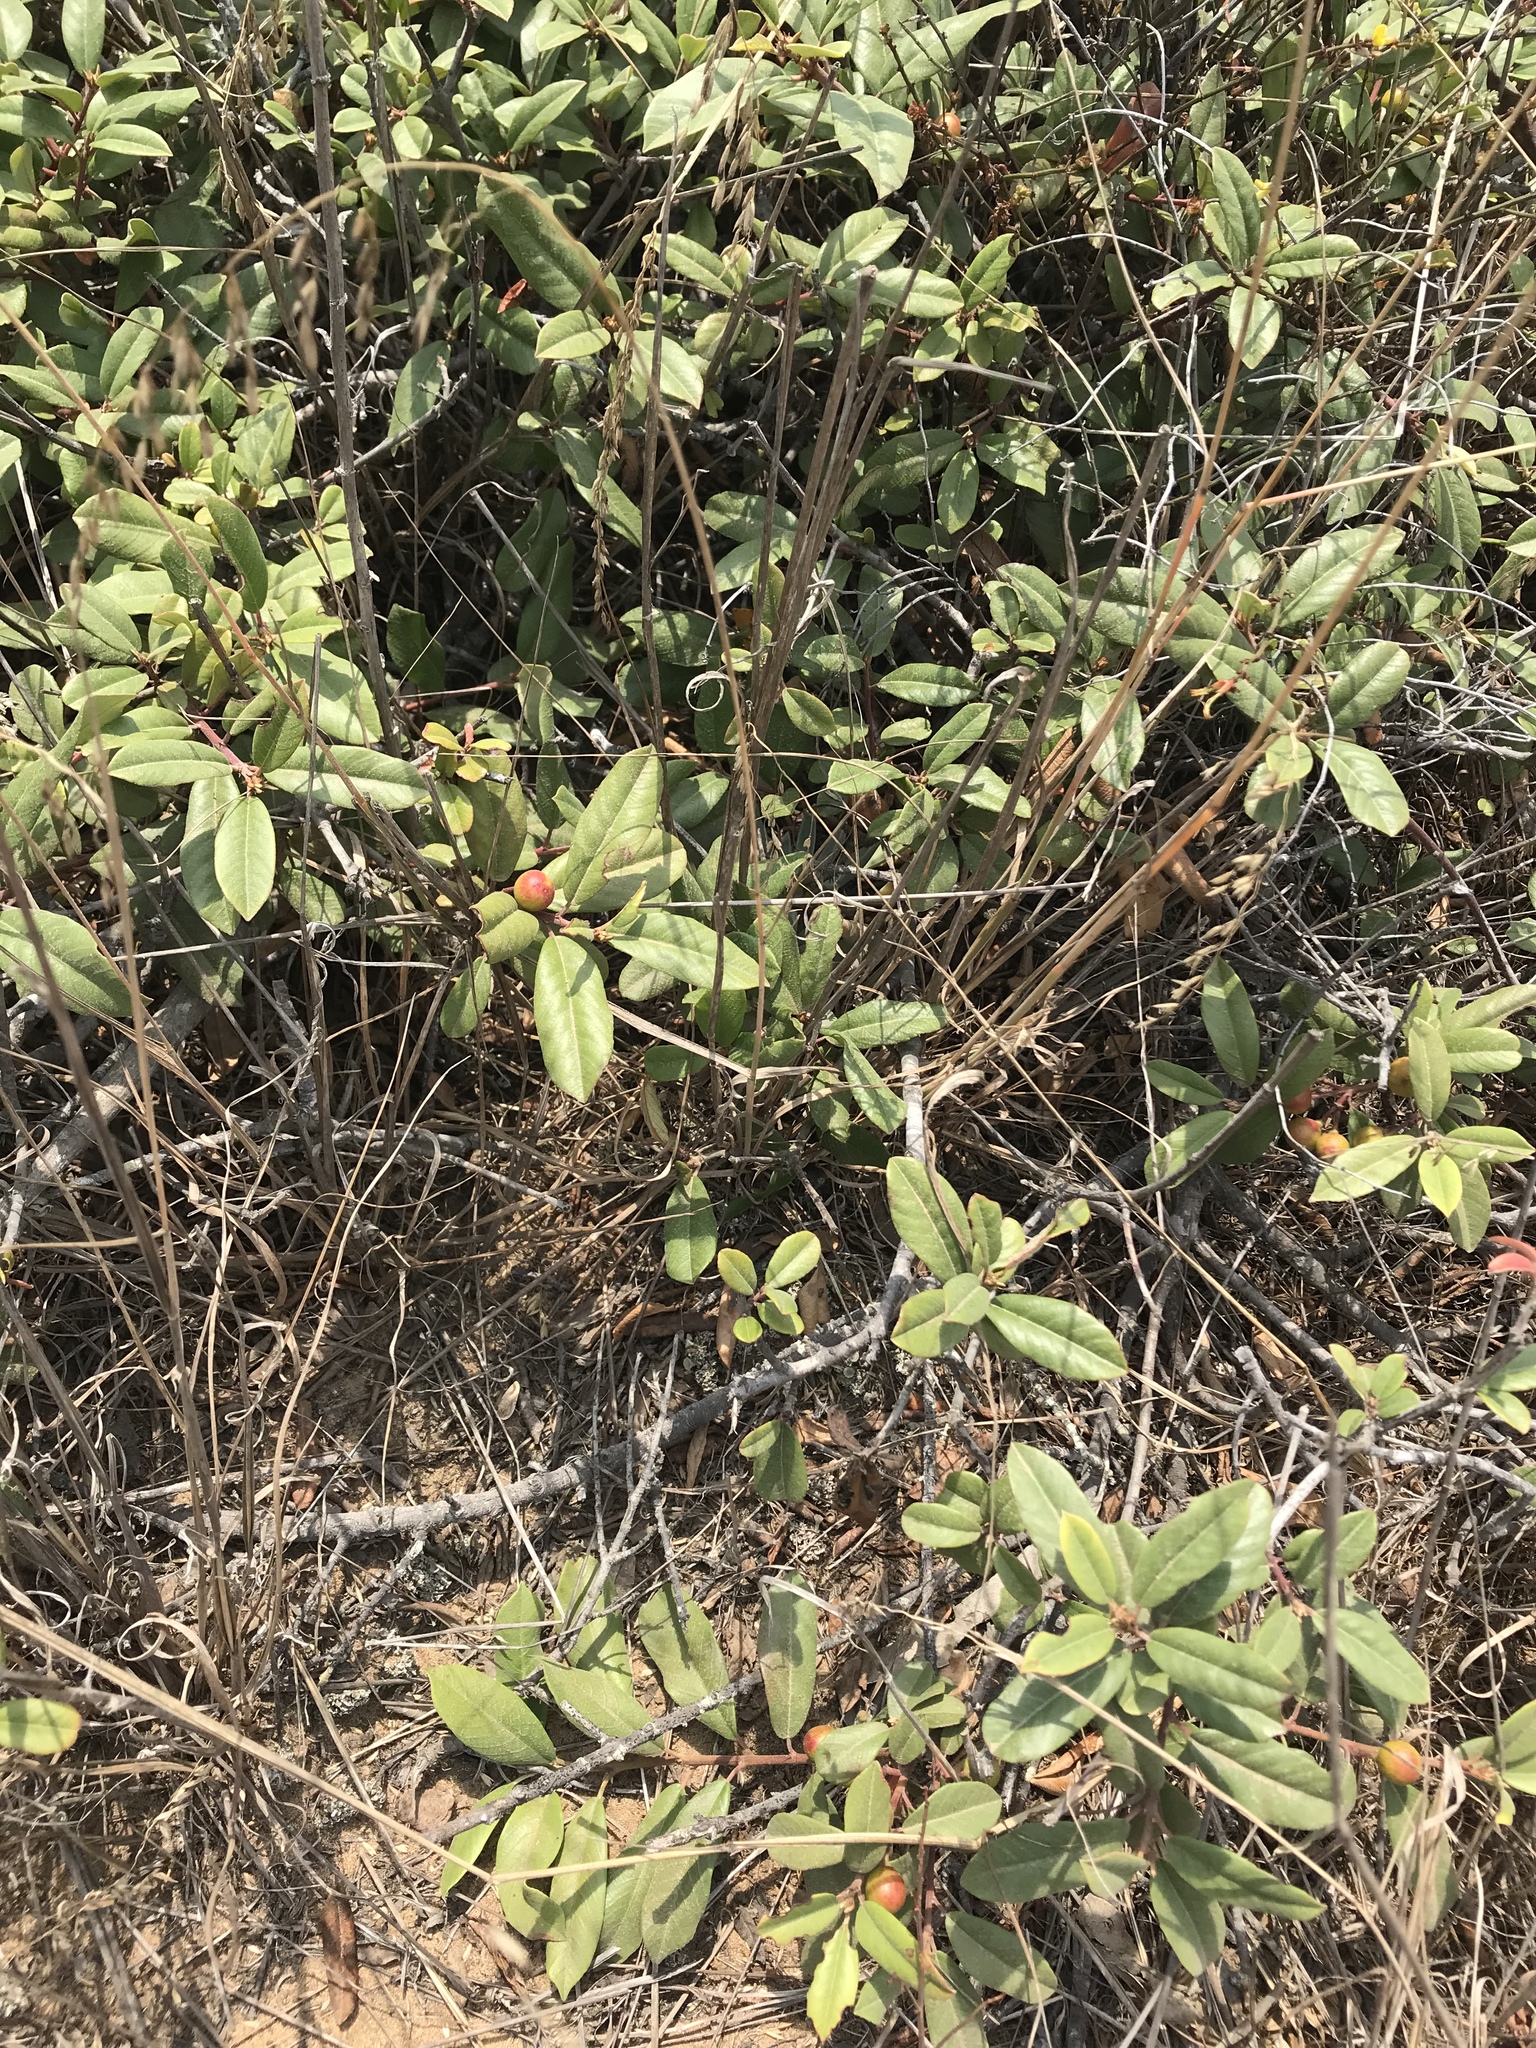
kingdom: Plantae
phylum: Tracheophyta
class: Magnoliopsida
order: Rosales
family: Rhamnaceae
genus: Frangula
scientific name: Frangula californica
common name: California buckthorn
